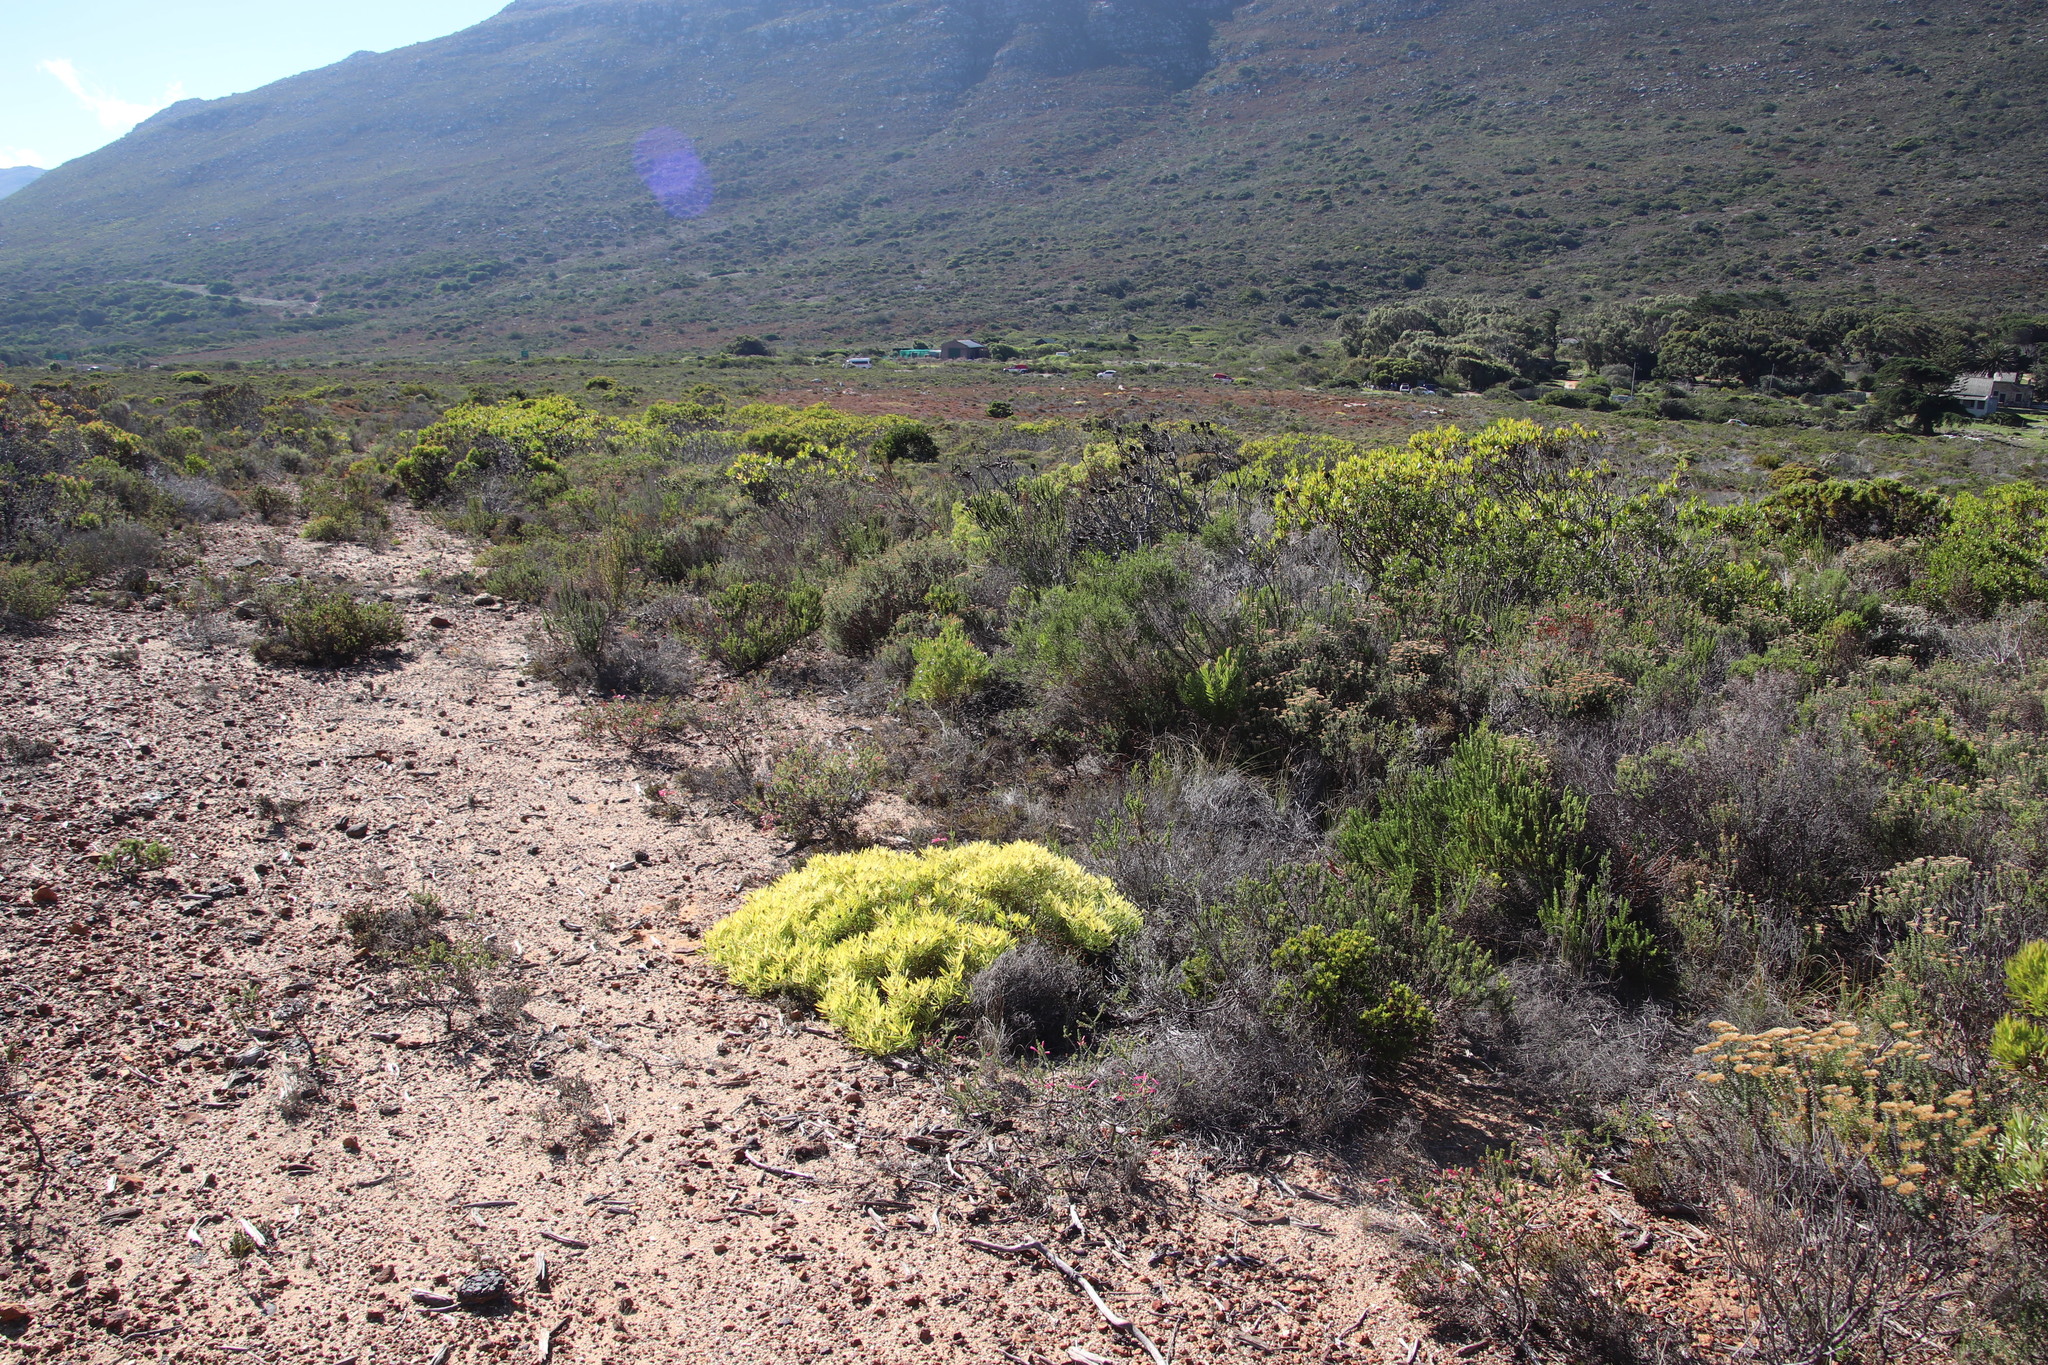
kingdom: Plantae
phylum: Tracheophyta
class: Magnoliopsida
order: Proteales
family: Proteaceae
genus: Leucadendron
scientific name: Leucadendron salignum
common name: Common sunshine conebush
